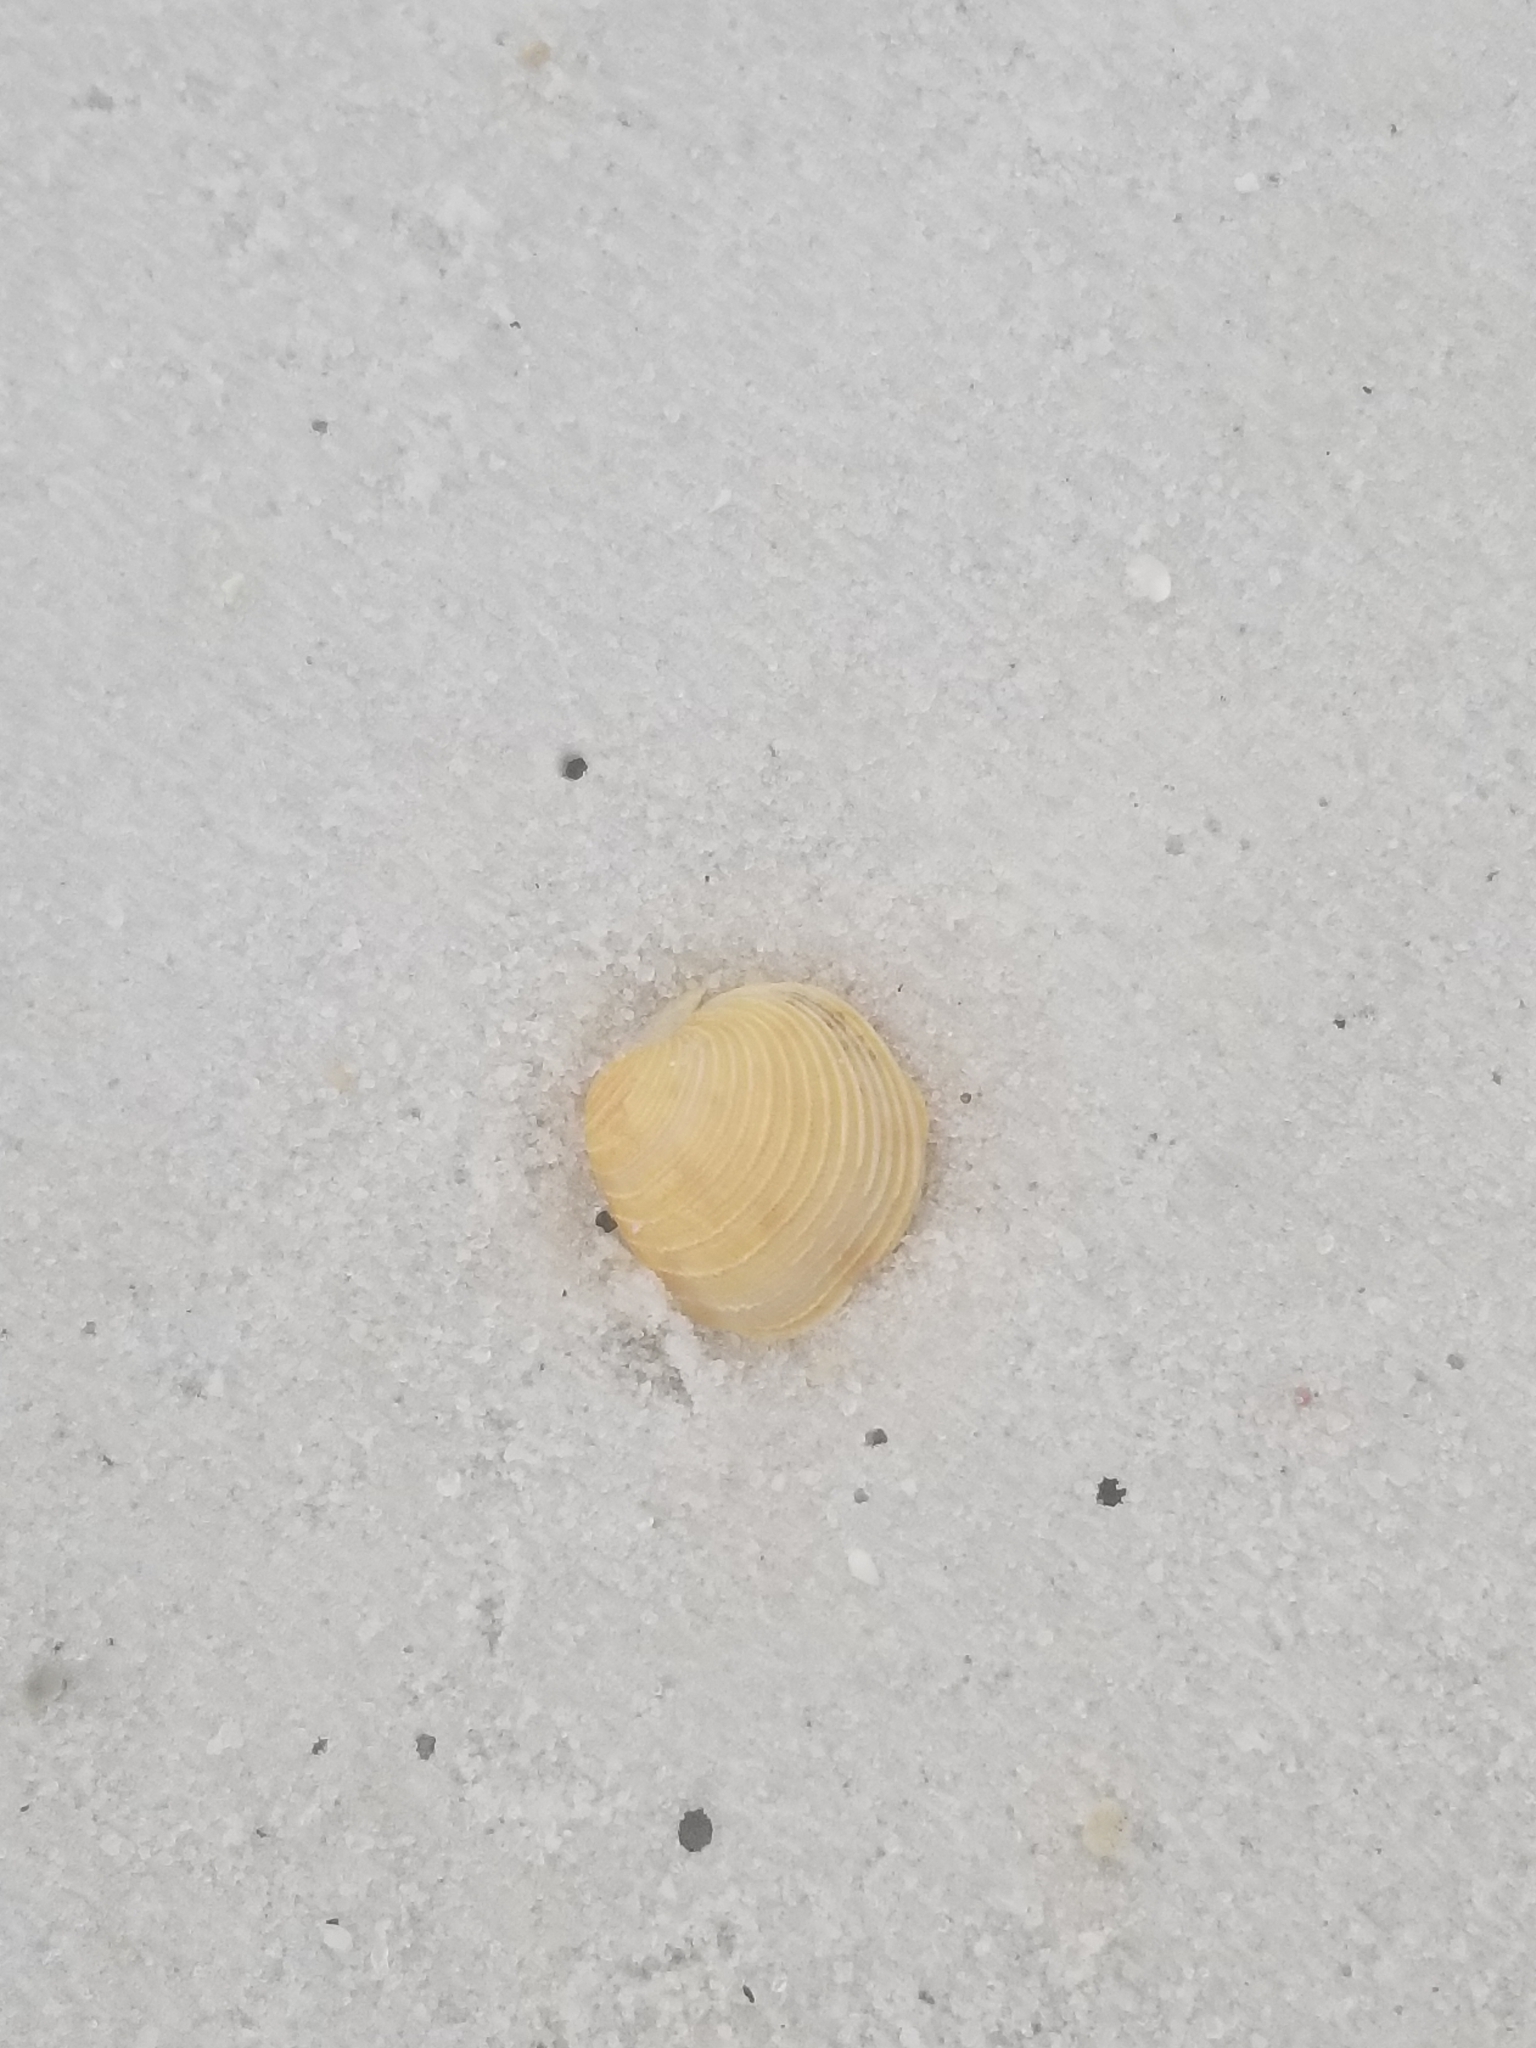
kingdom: Animalia
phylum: Mollusca
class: Bivalvia
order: Venerida
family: Veneridae
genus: Chionopsis
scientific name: Chionopsis intapurpurea
